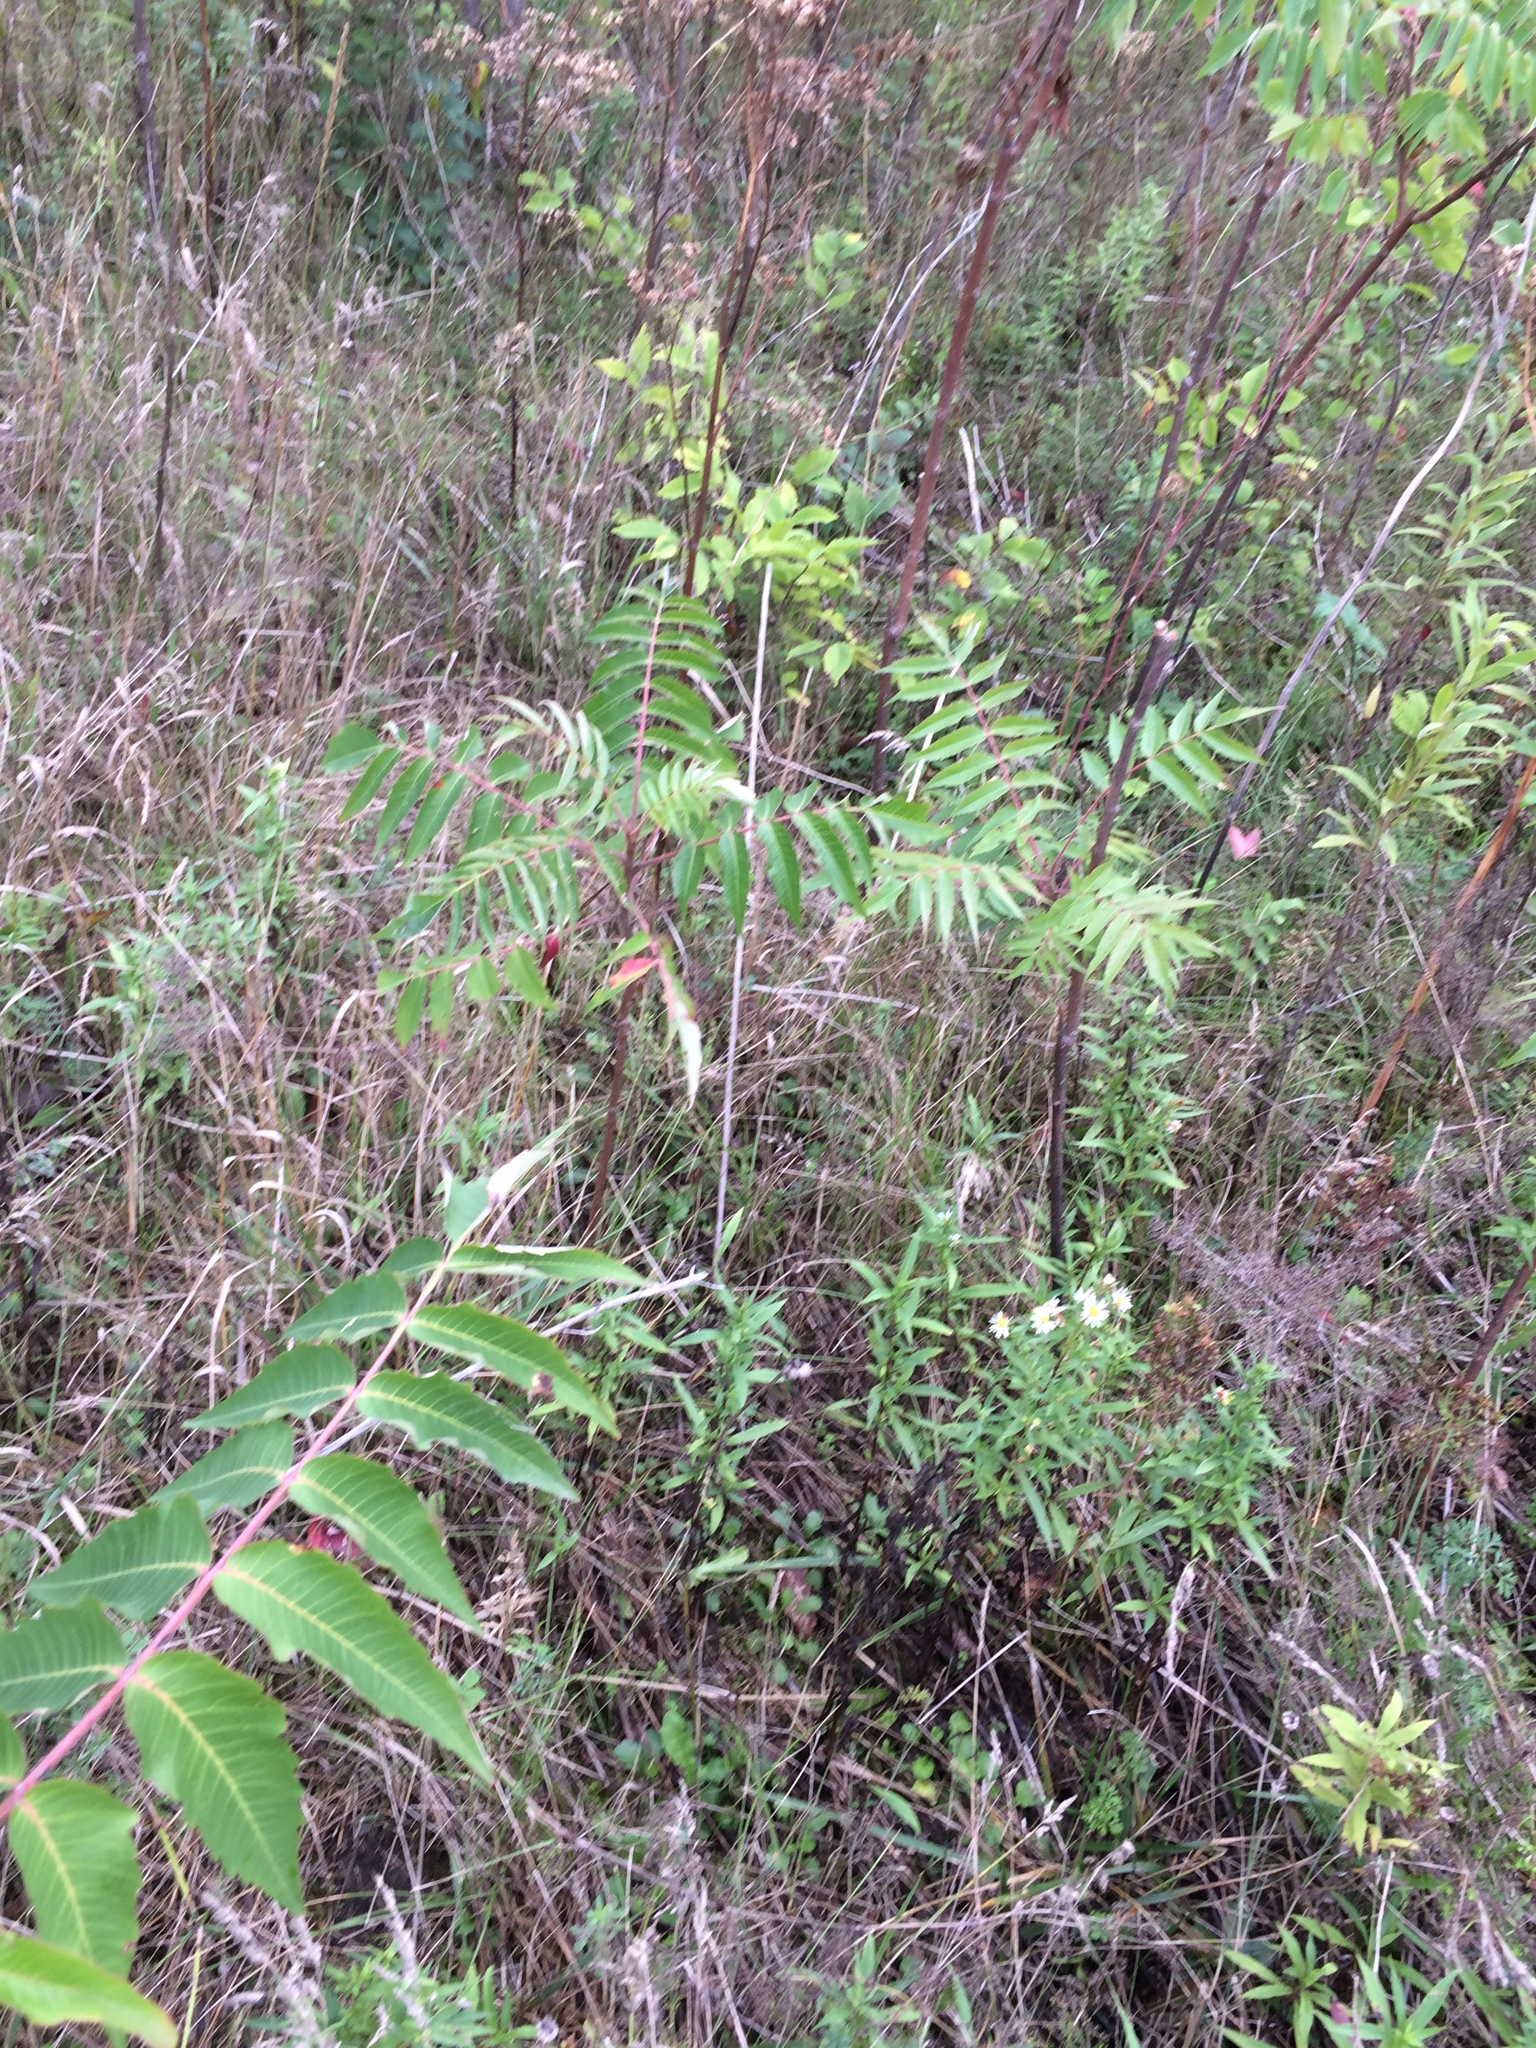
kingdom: Plantae
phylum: Tracheophyta
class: Magnoliopsida
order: Asterales
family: Asteraceae
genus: Symphyotrichum
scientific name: Symphyotrichum lanceolatum
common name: Panicled aster
